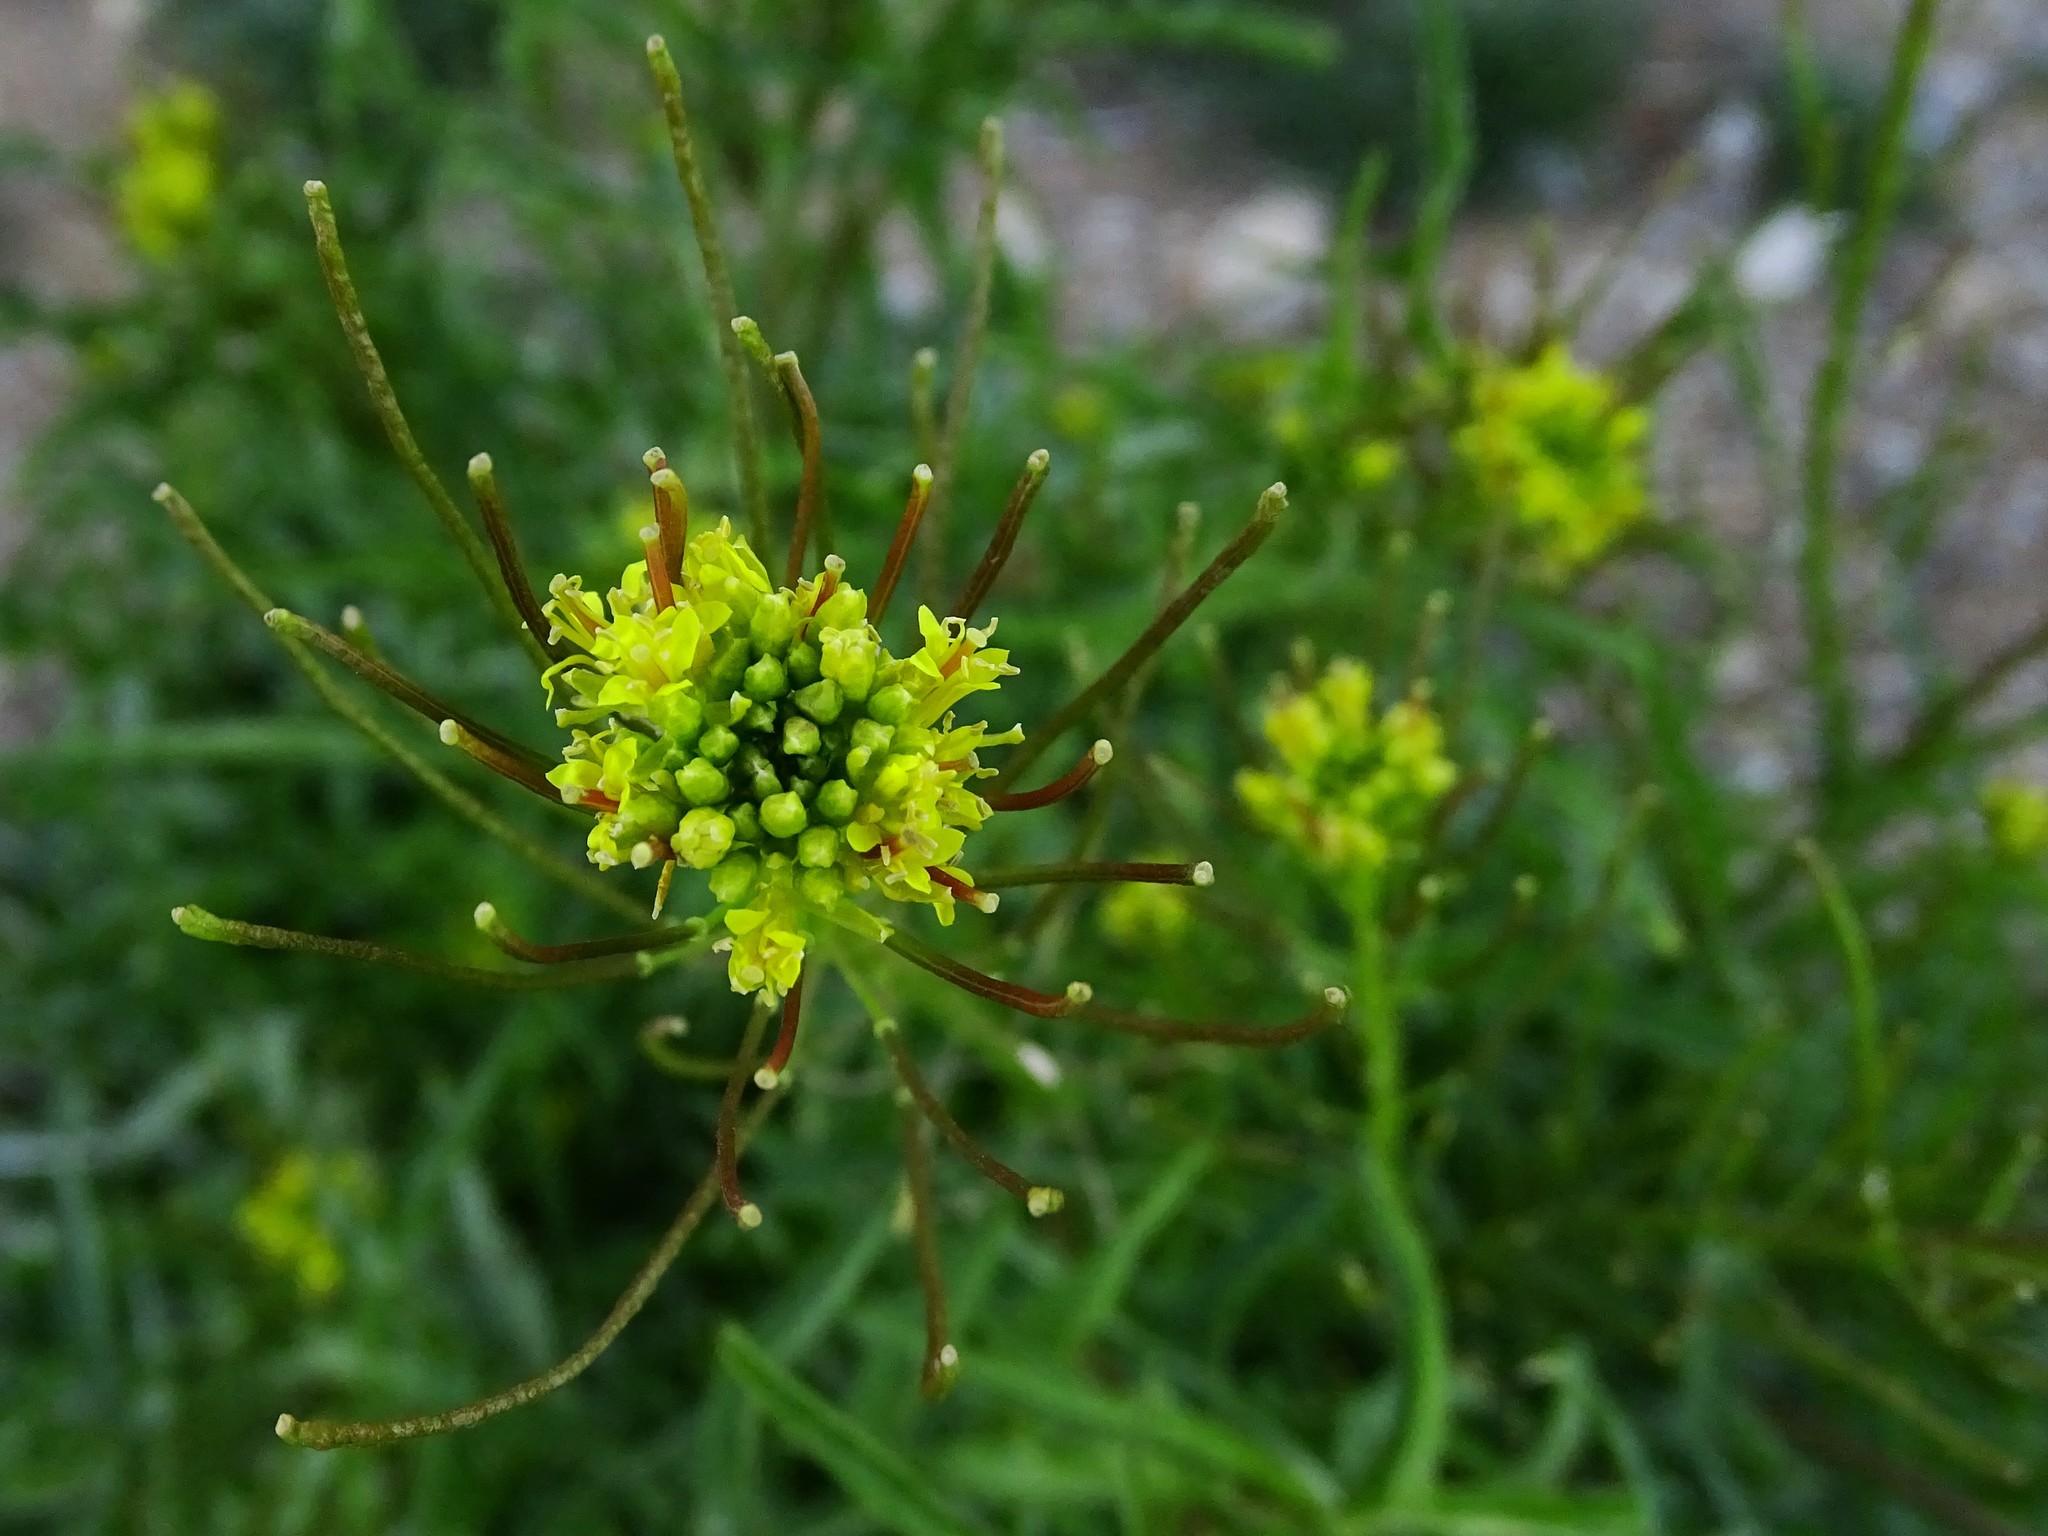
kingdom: Plantae
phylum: Tracheophyta
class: Magnoliopsida
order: Brassicales
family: Brassicaceae
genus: Sisymbrium
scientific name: Sisymbrium irio
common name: London rocket
